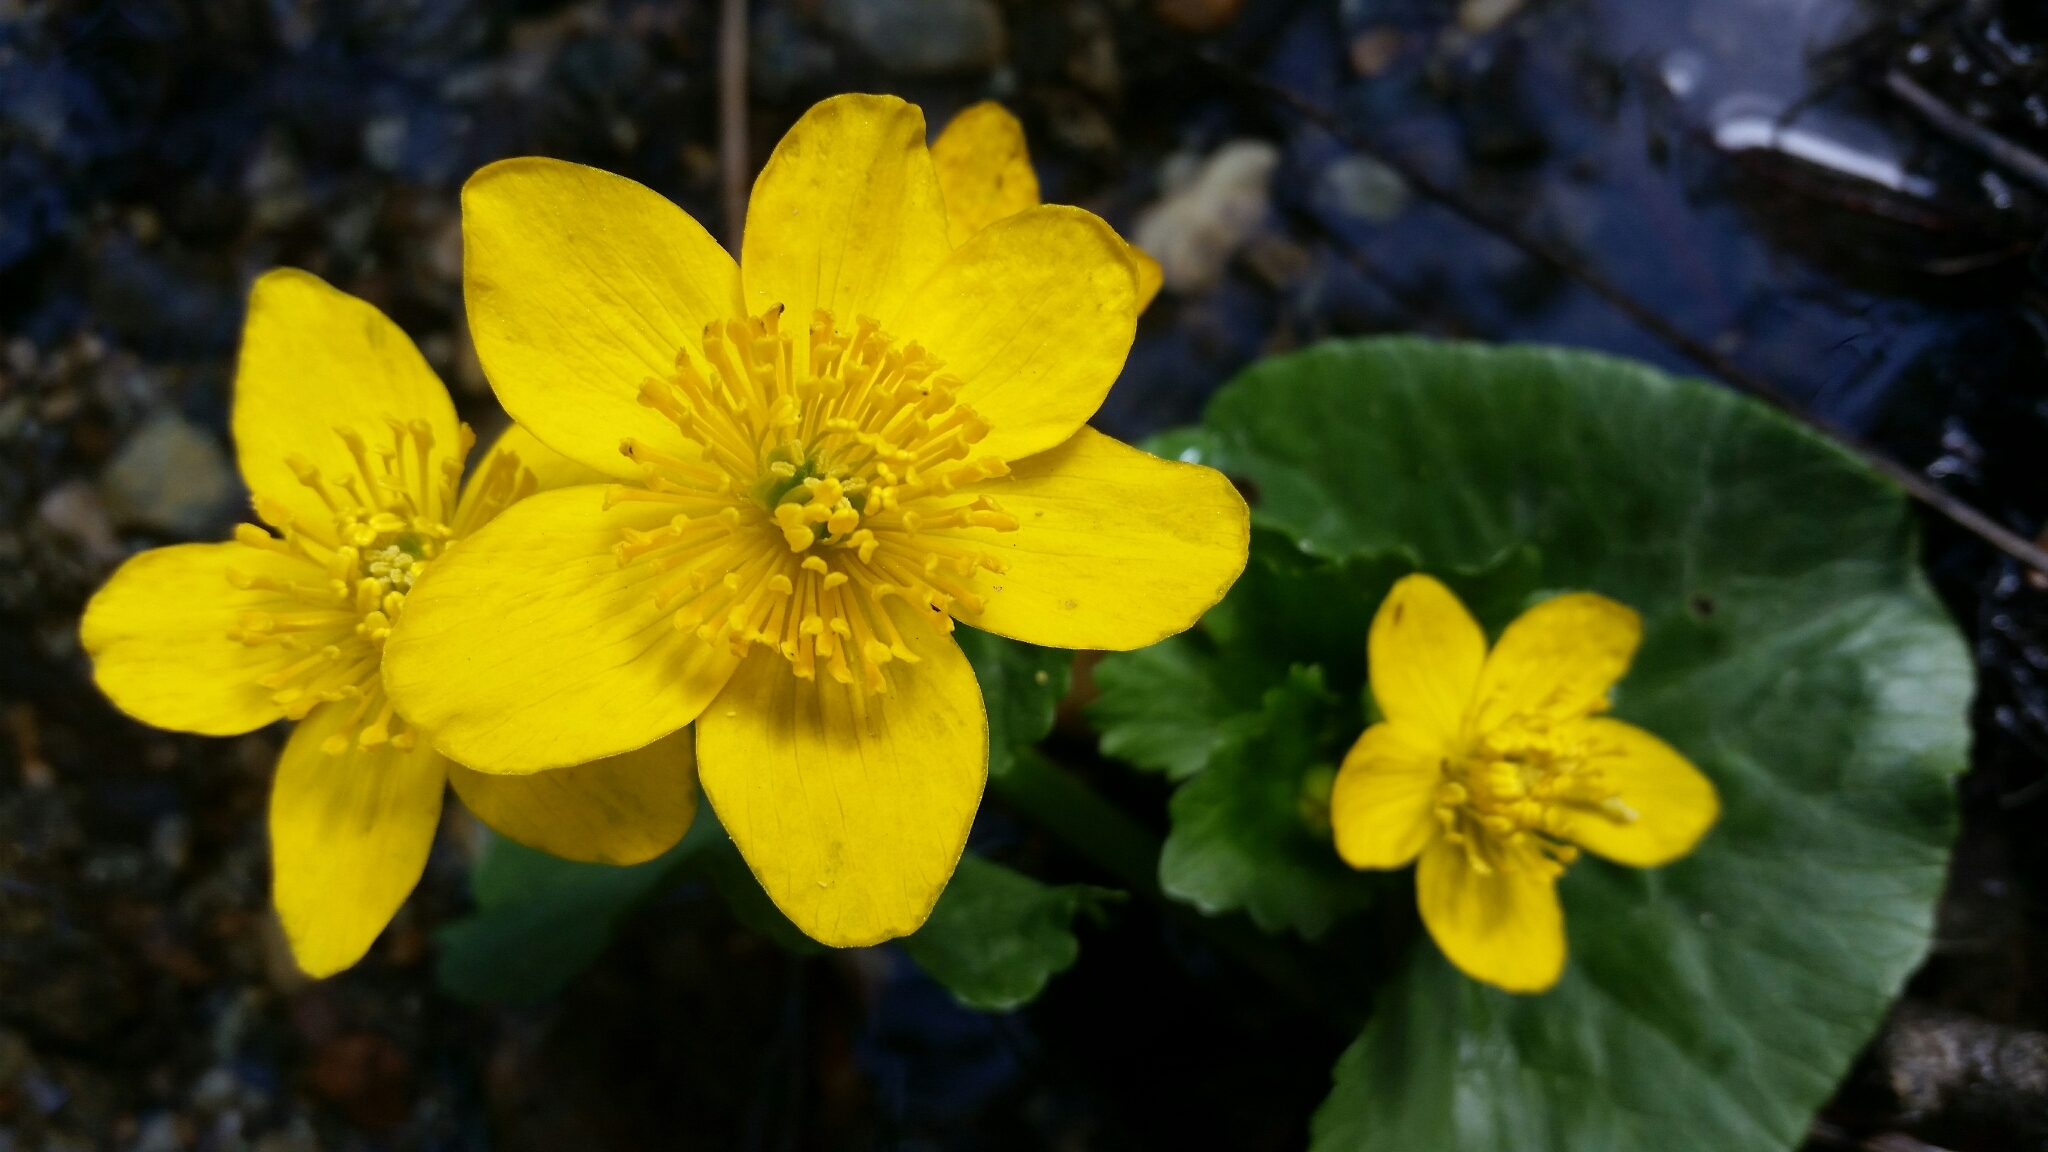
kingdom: Plantae
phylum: Tracheophyta
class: Magnoliopsida
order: Ranunculales
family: Ranunculaceae
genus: Caltha
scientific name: Caltha palustris
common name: Marsh marigold
